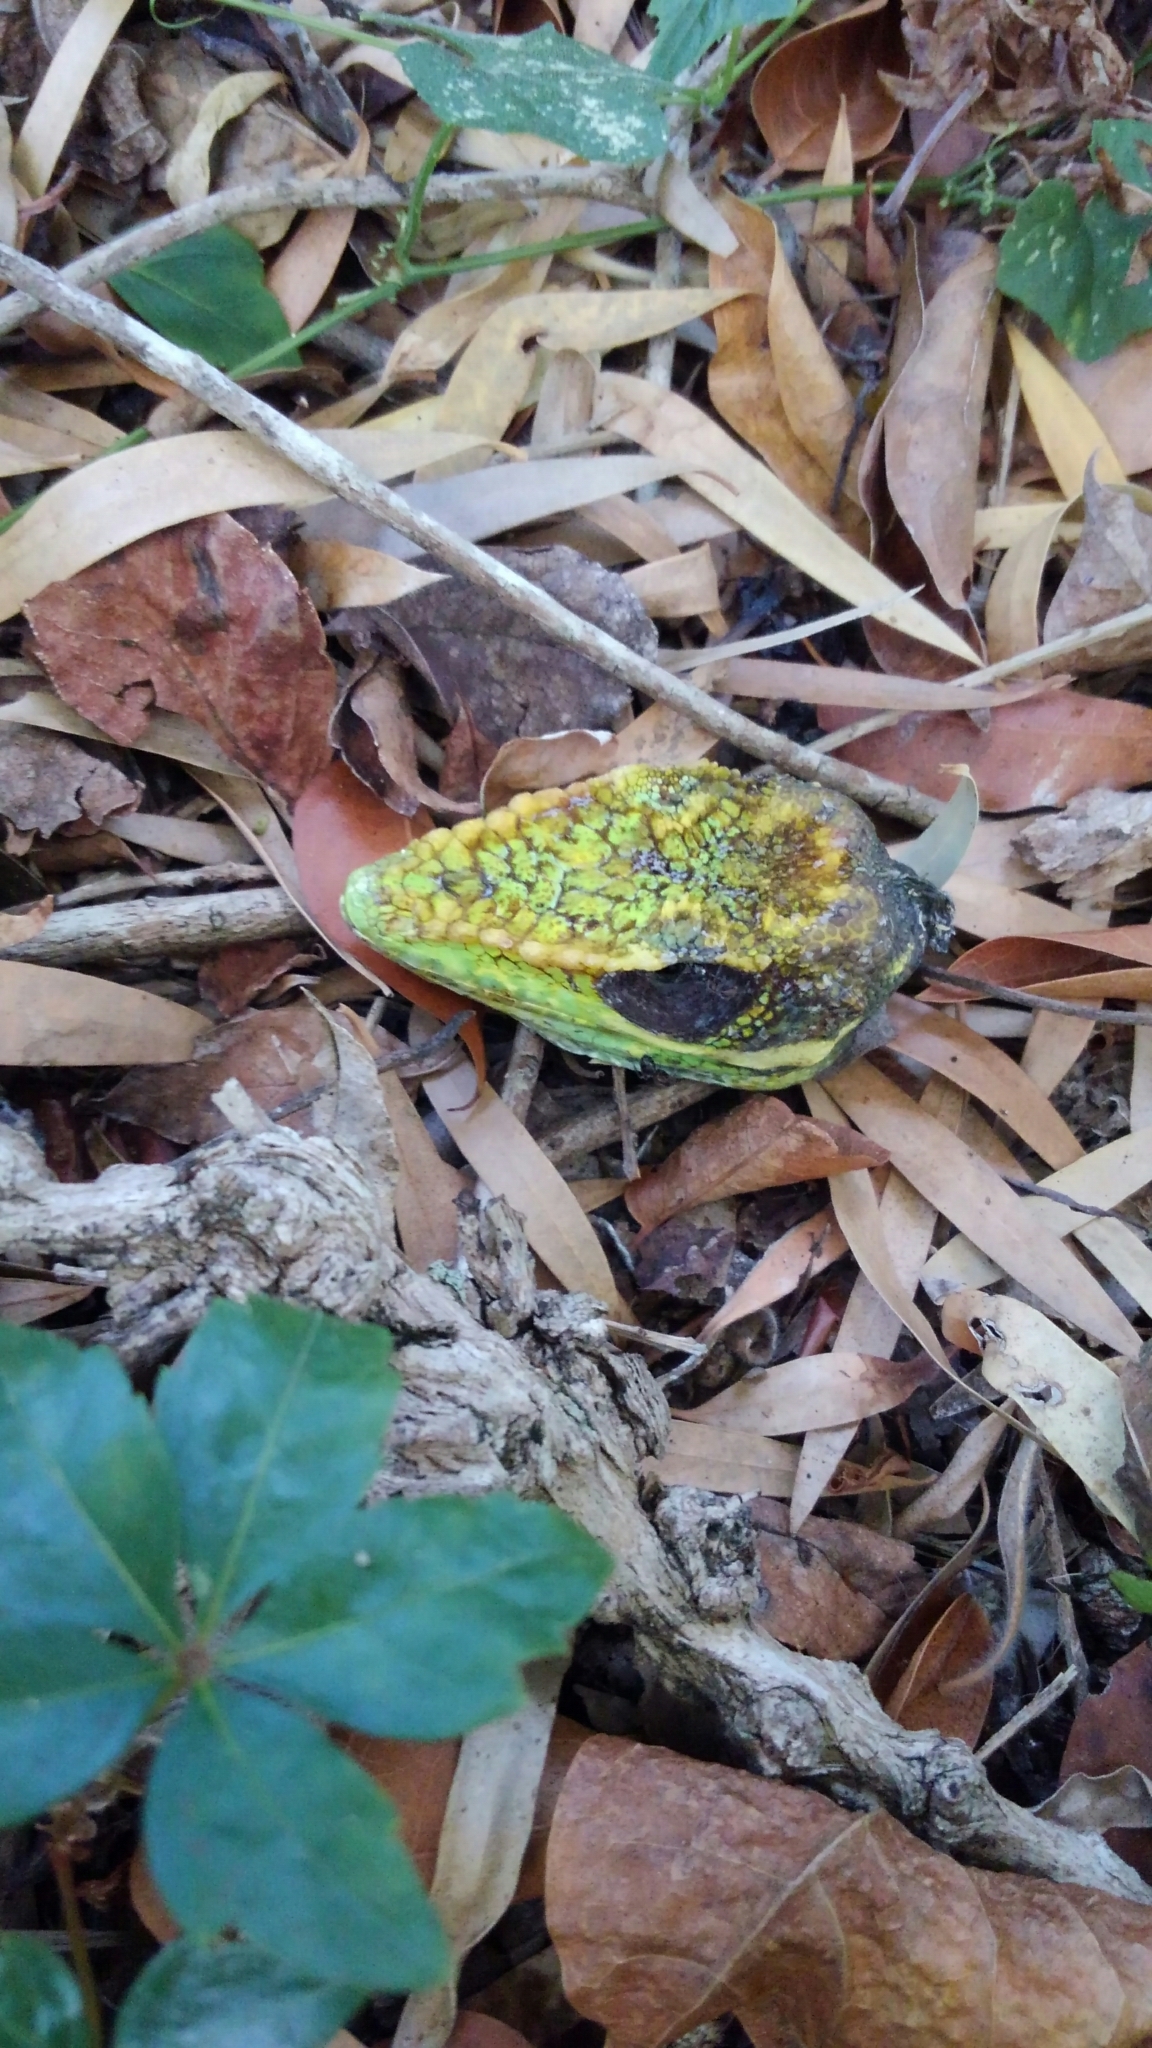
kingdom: Animalia
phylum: Chordata
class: Squamata
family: Dactyloidae
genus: Anolis
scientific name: Anolis equestris
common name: Knight anole
